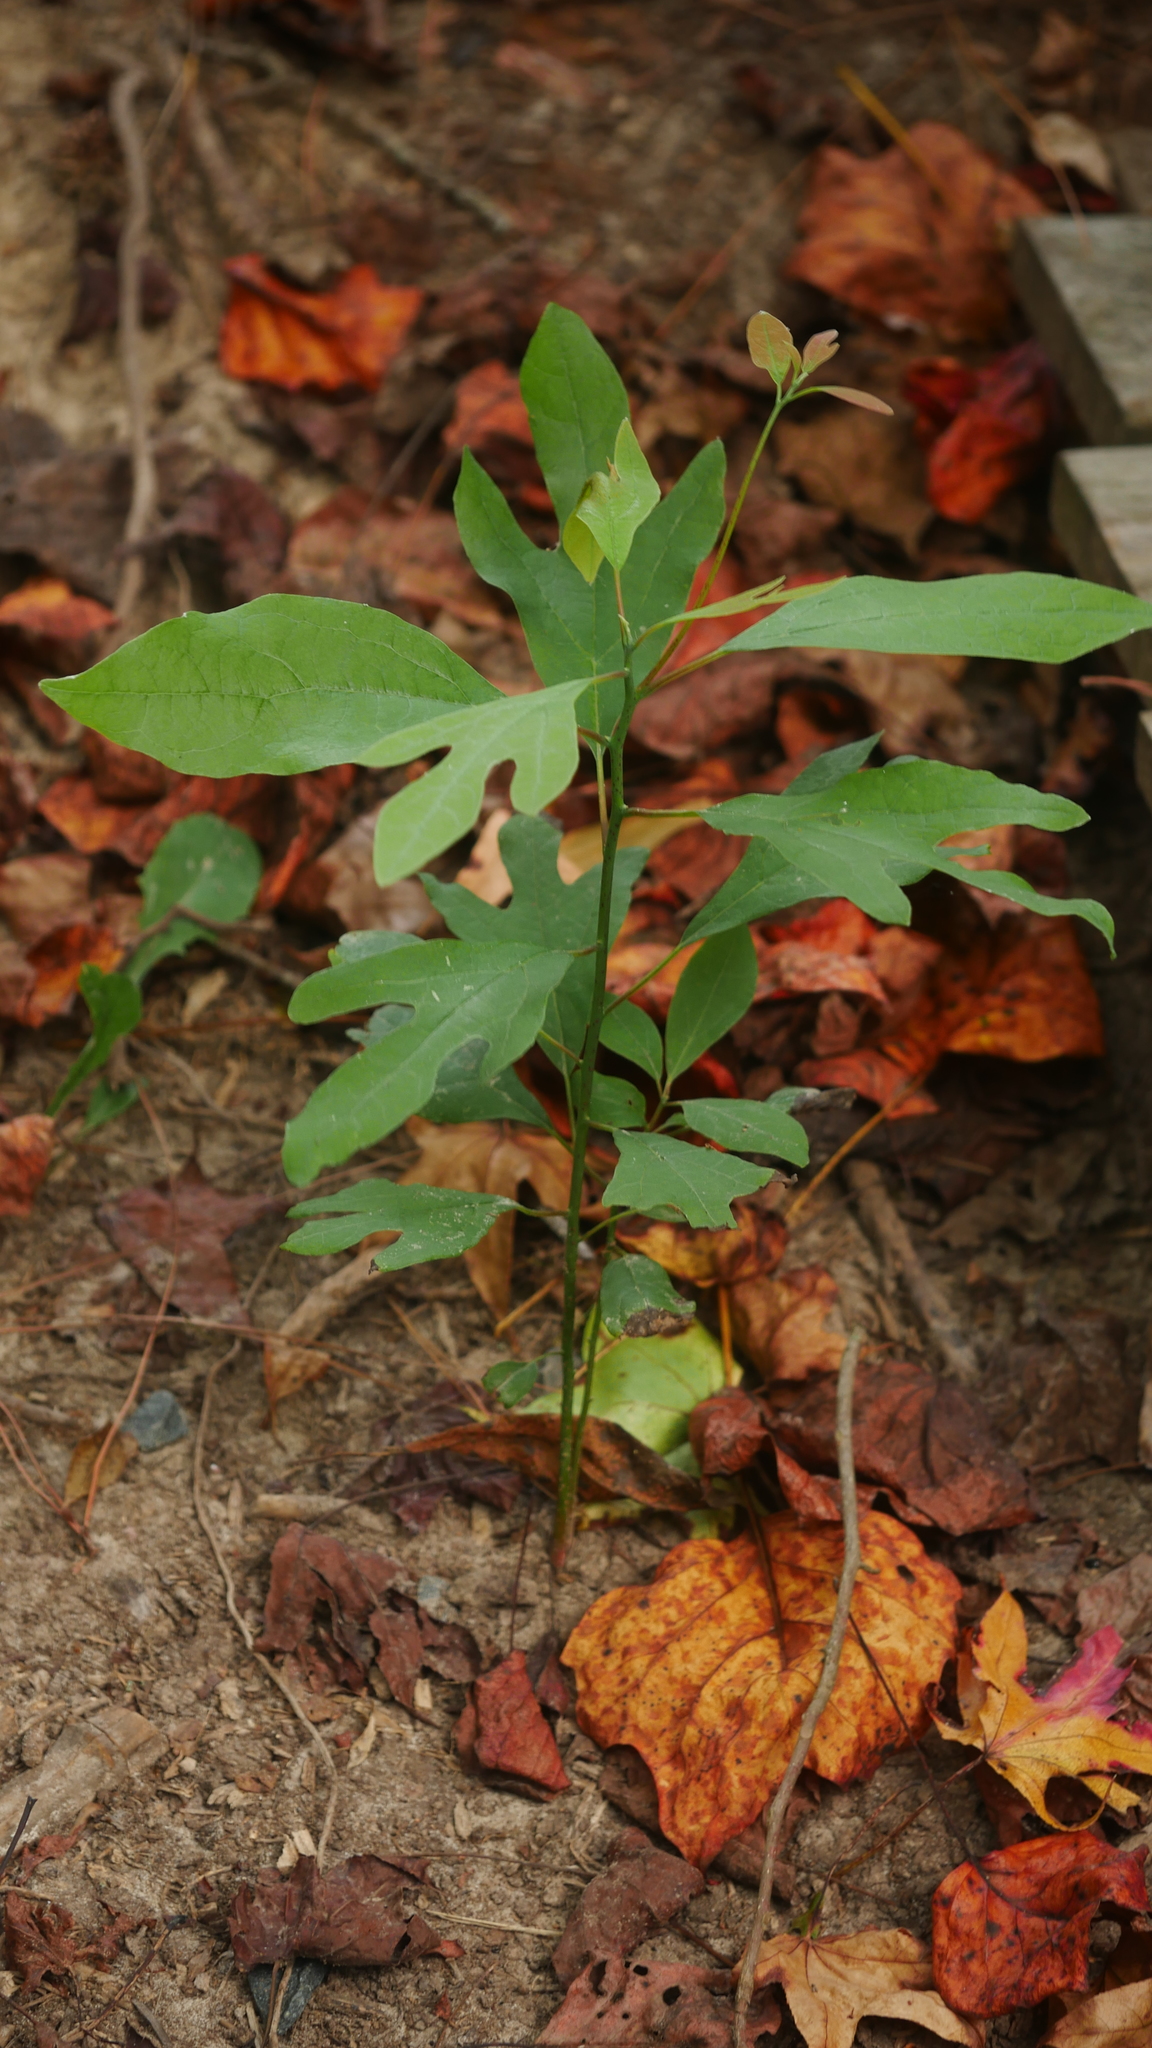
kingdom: Plantae
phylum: Tracheophyta
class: Magnoliopsida
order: Laurales
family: Lauraceae
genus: Sassafras
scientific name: Sassafras albidum
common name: Sassafras
